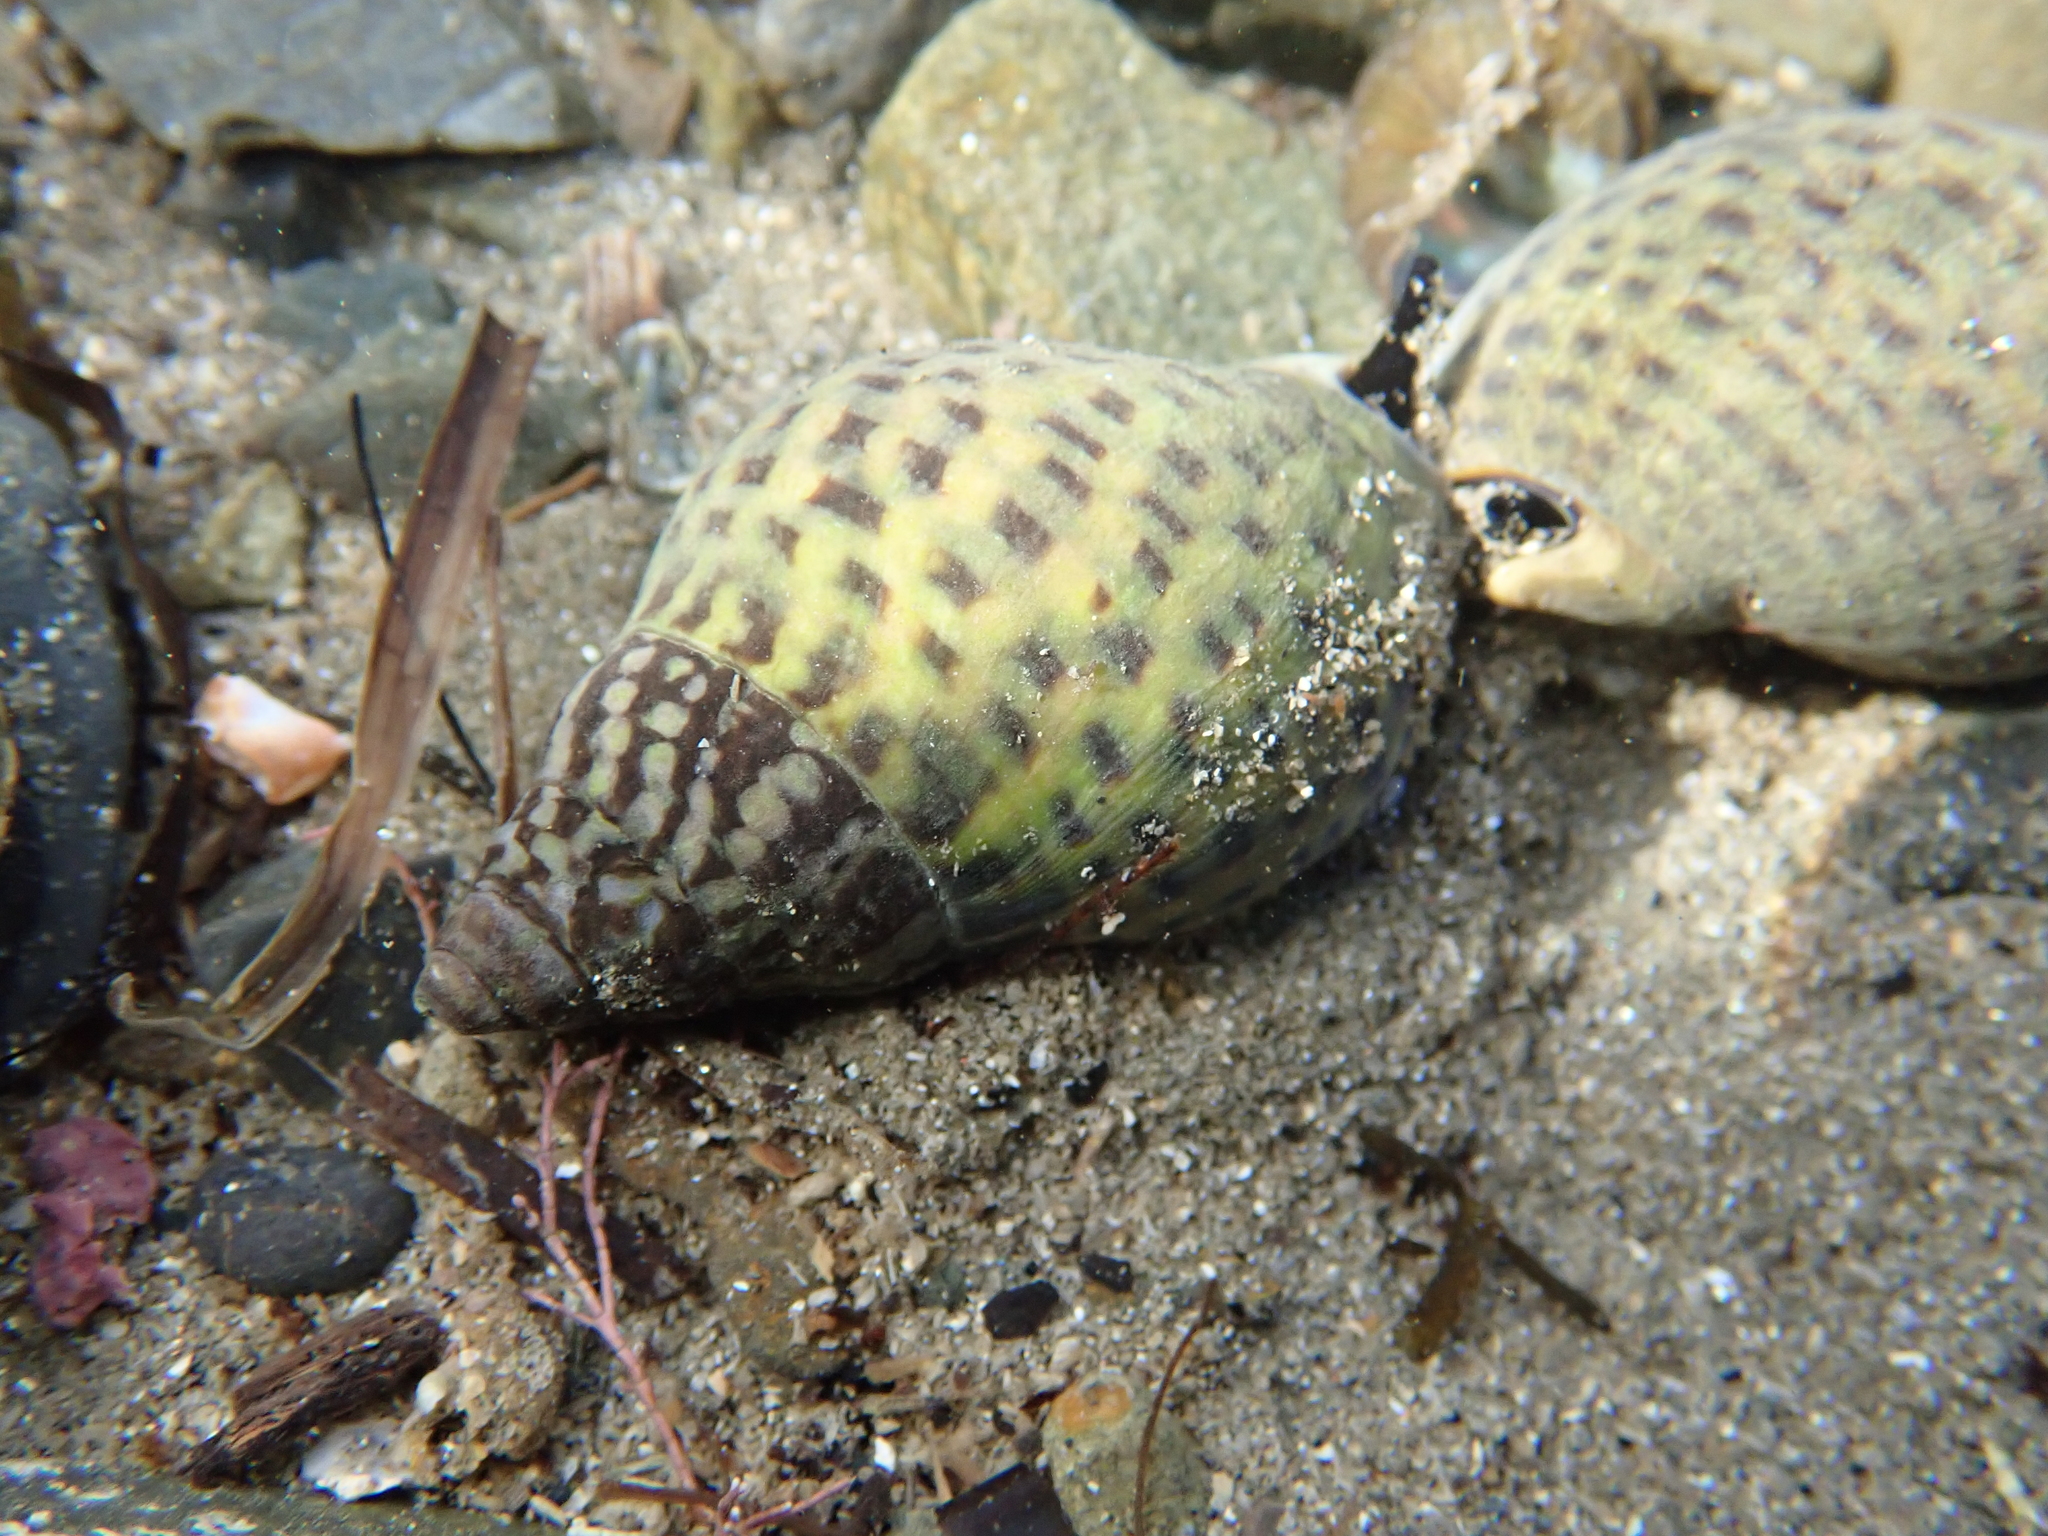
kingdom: Animalia
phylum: Mollusca
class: Gastropoda
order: Neogastropoda
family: Cominellidae
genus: Cominella
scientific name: Cominella maculosa
